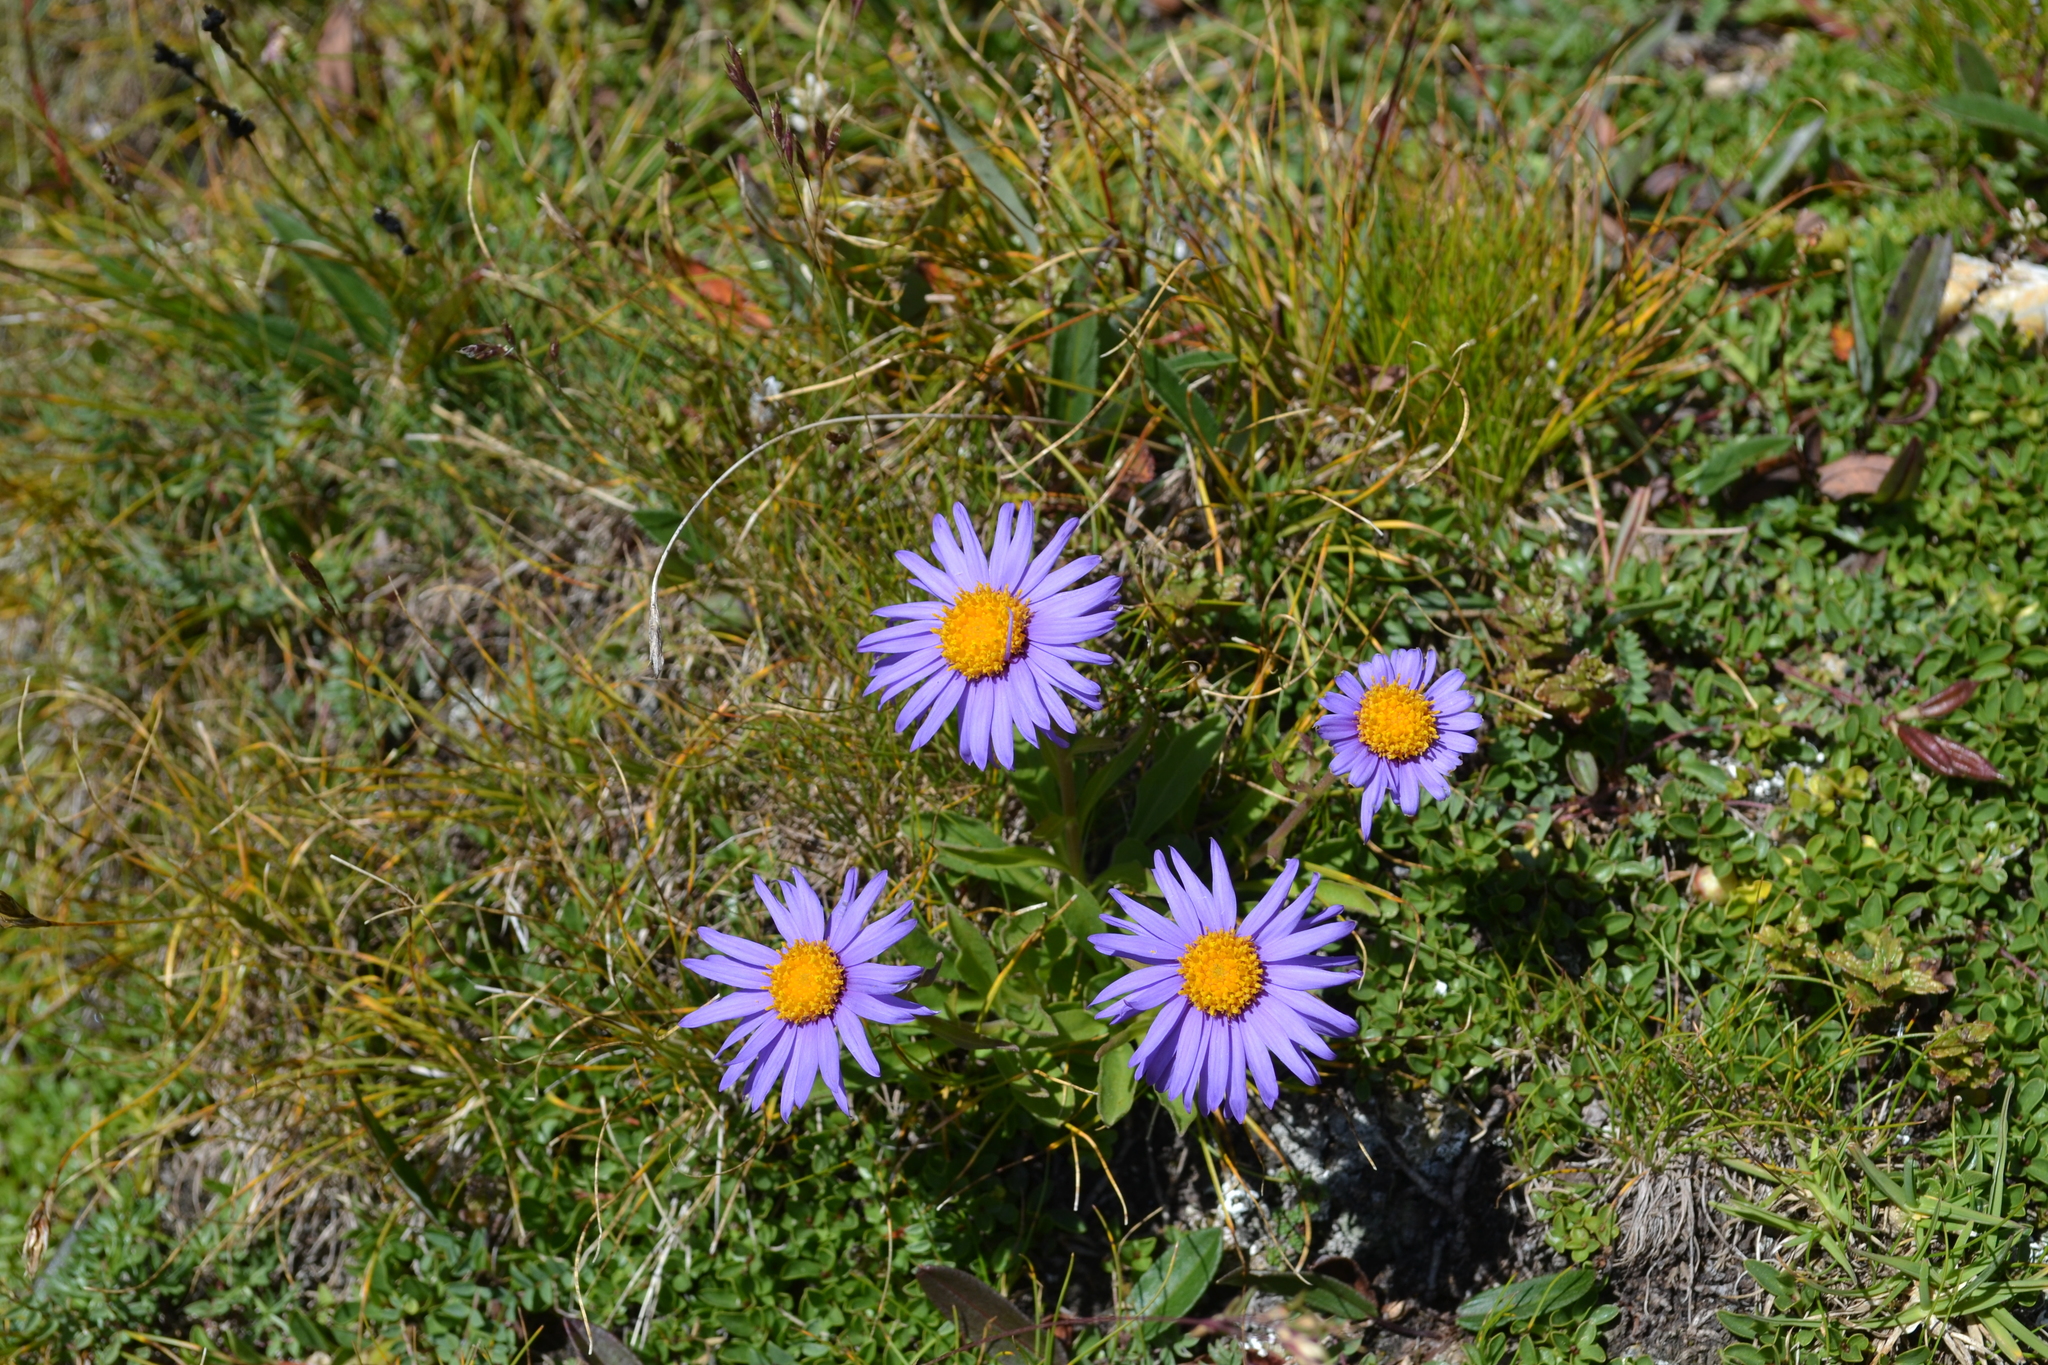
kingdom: Plantae
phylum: Tracheophyta
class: Magnoliopsida
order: Asterales
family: Asteraceae
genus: Aster
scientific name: Aster alpinus
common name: Alpine aster
